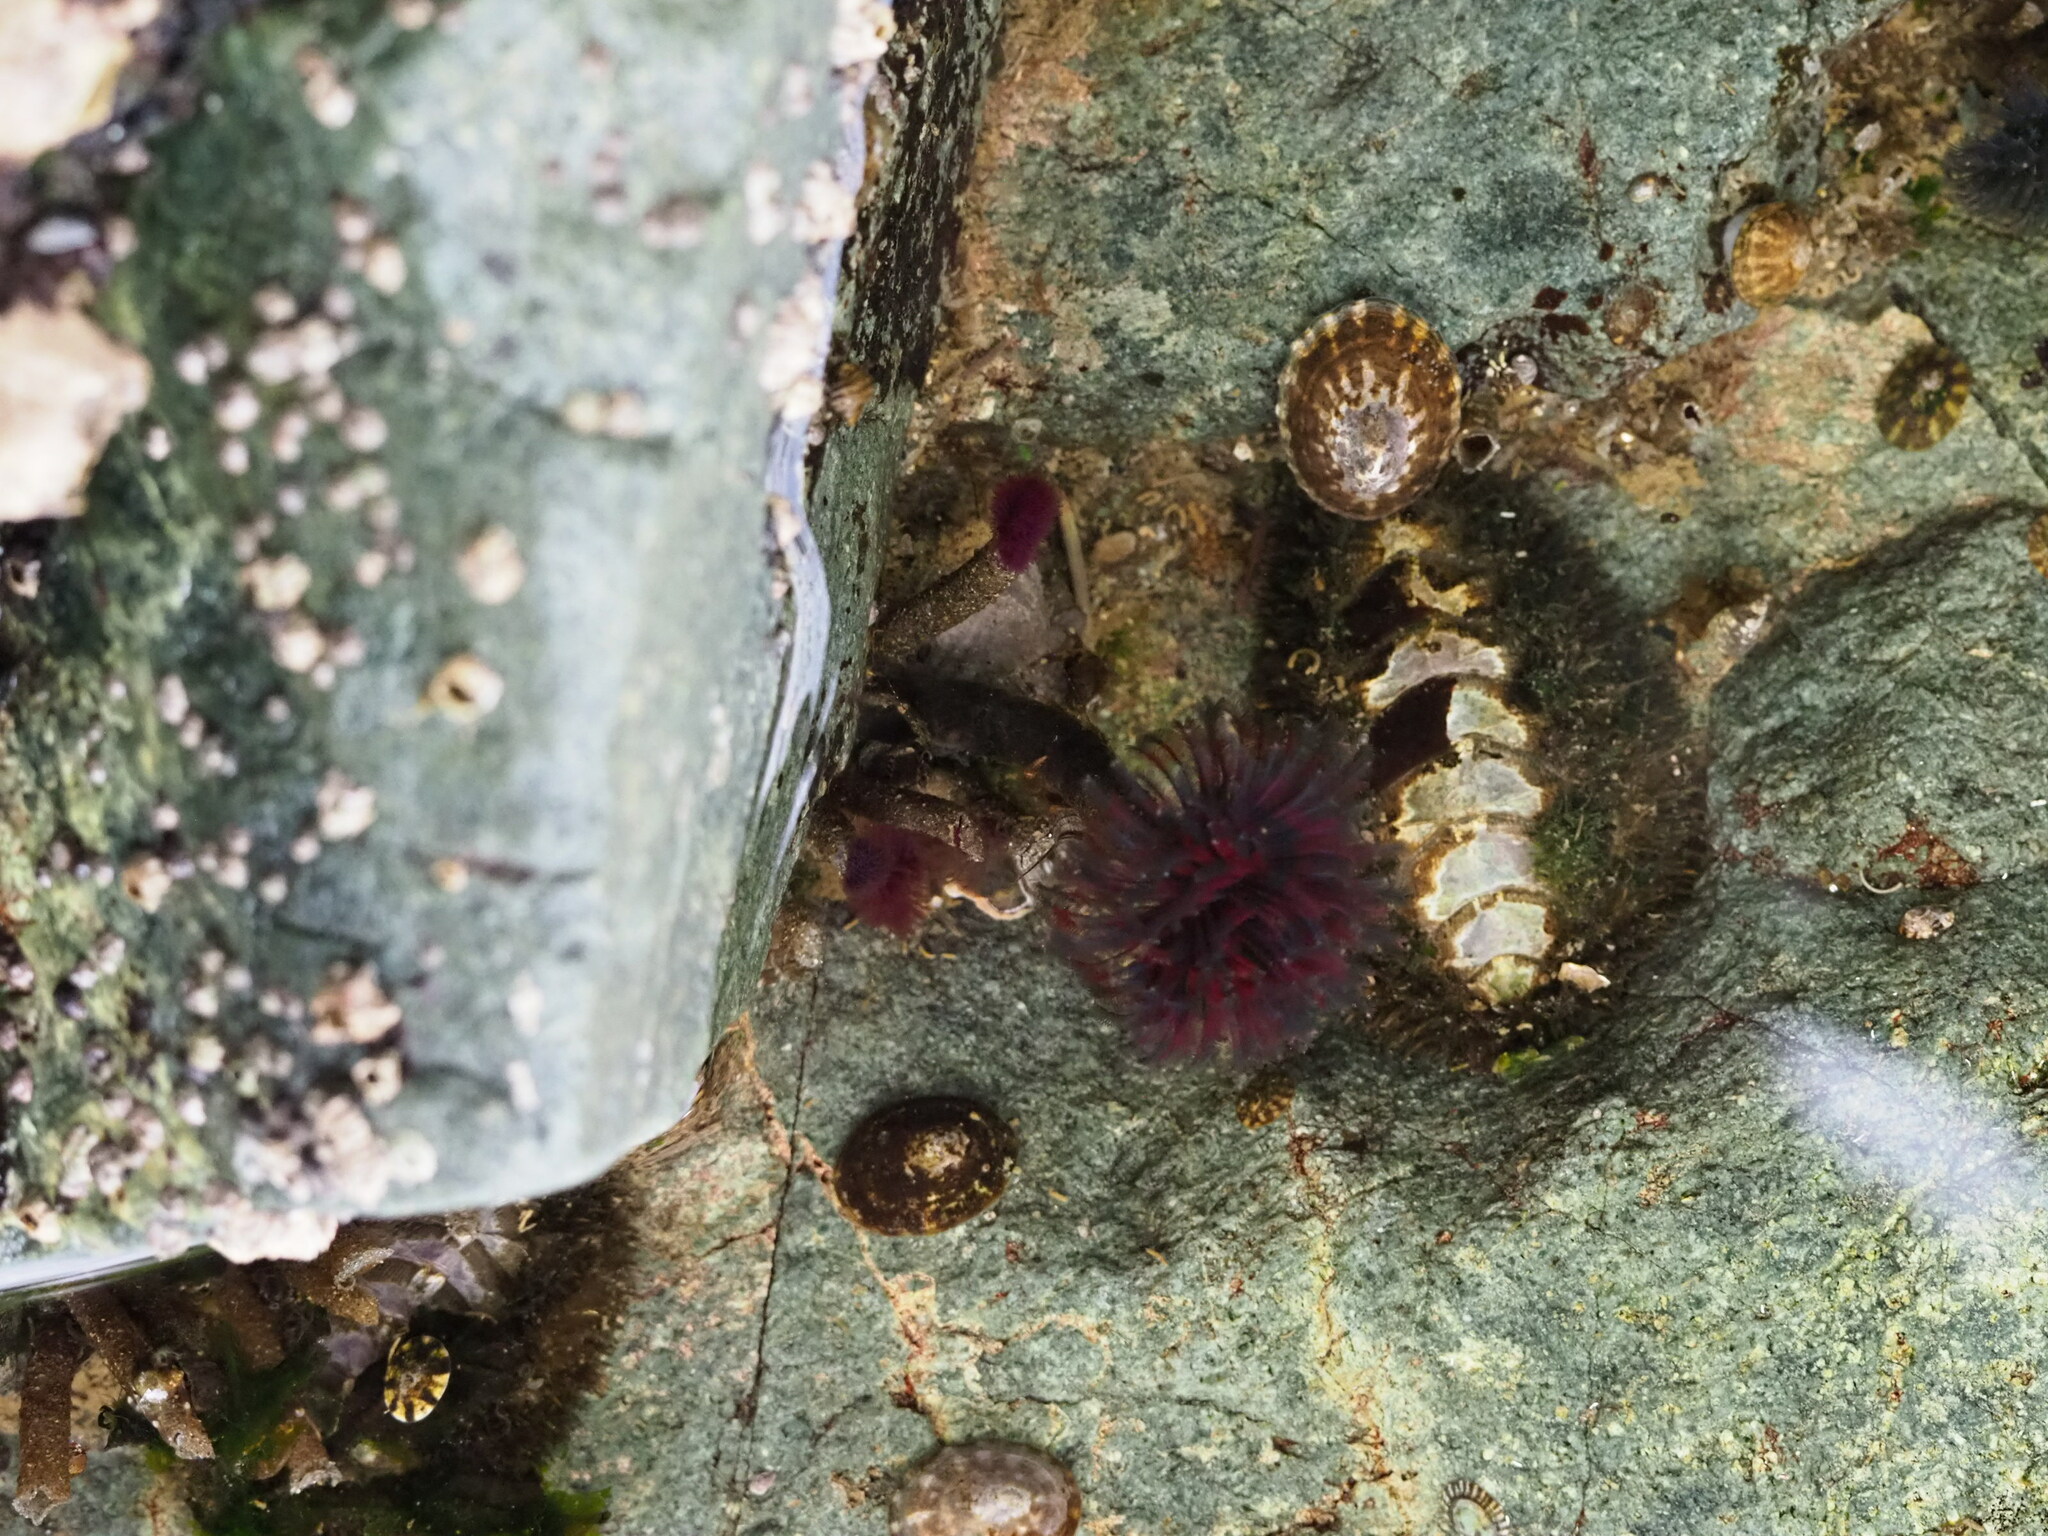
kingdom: Animalia
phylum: Mollusca
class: Polyplacophora
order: Chitonida
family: Mopaliidae
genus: Mopalia
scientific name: Mopalia muscosa
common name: Mossy chiton
